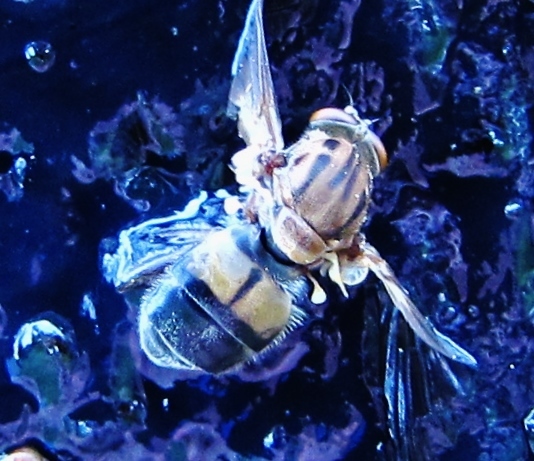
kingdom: Animalia
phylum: Arthropoda
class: Insecta
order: Diptera
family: Syrphidae
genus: Brachyopa
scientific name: Brachyopa vacua
